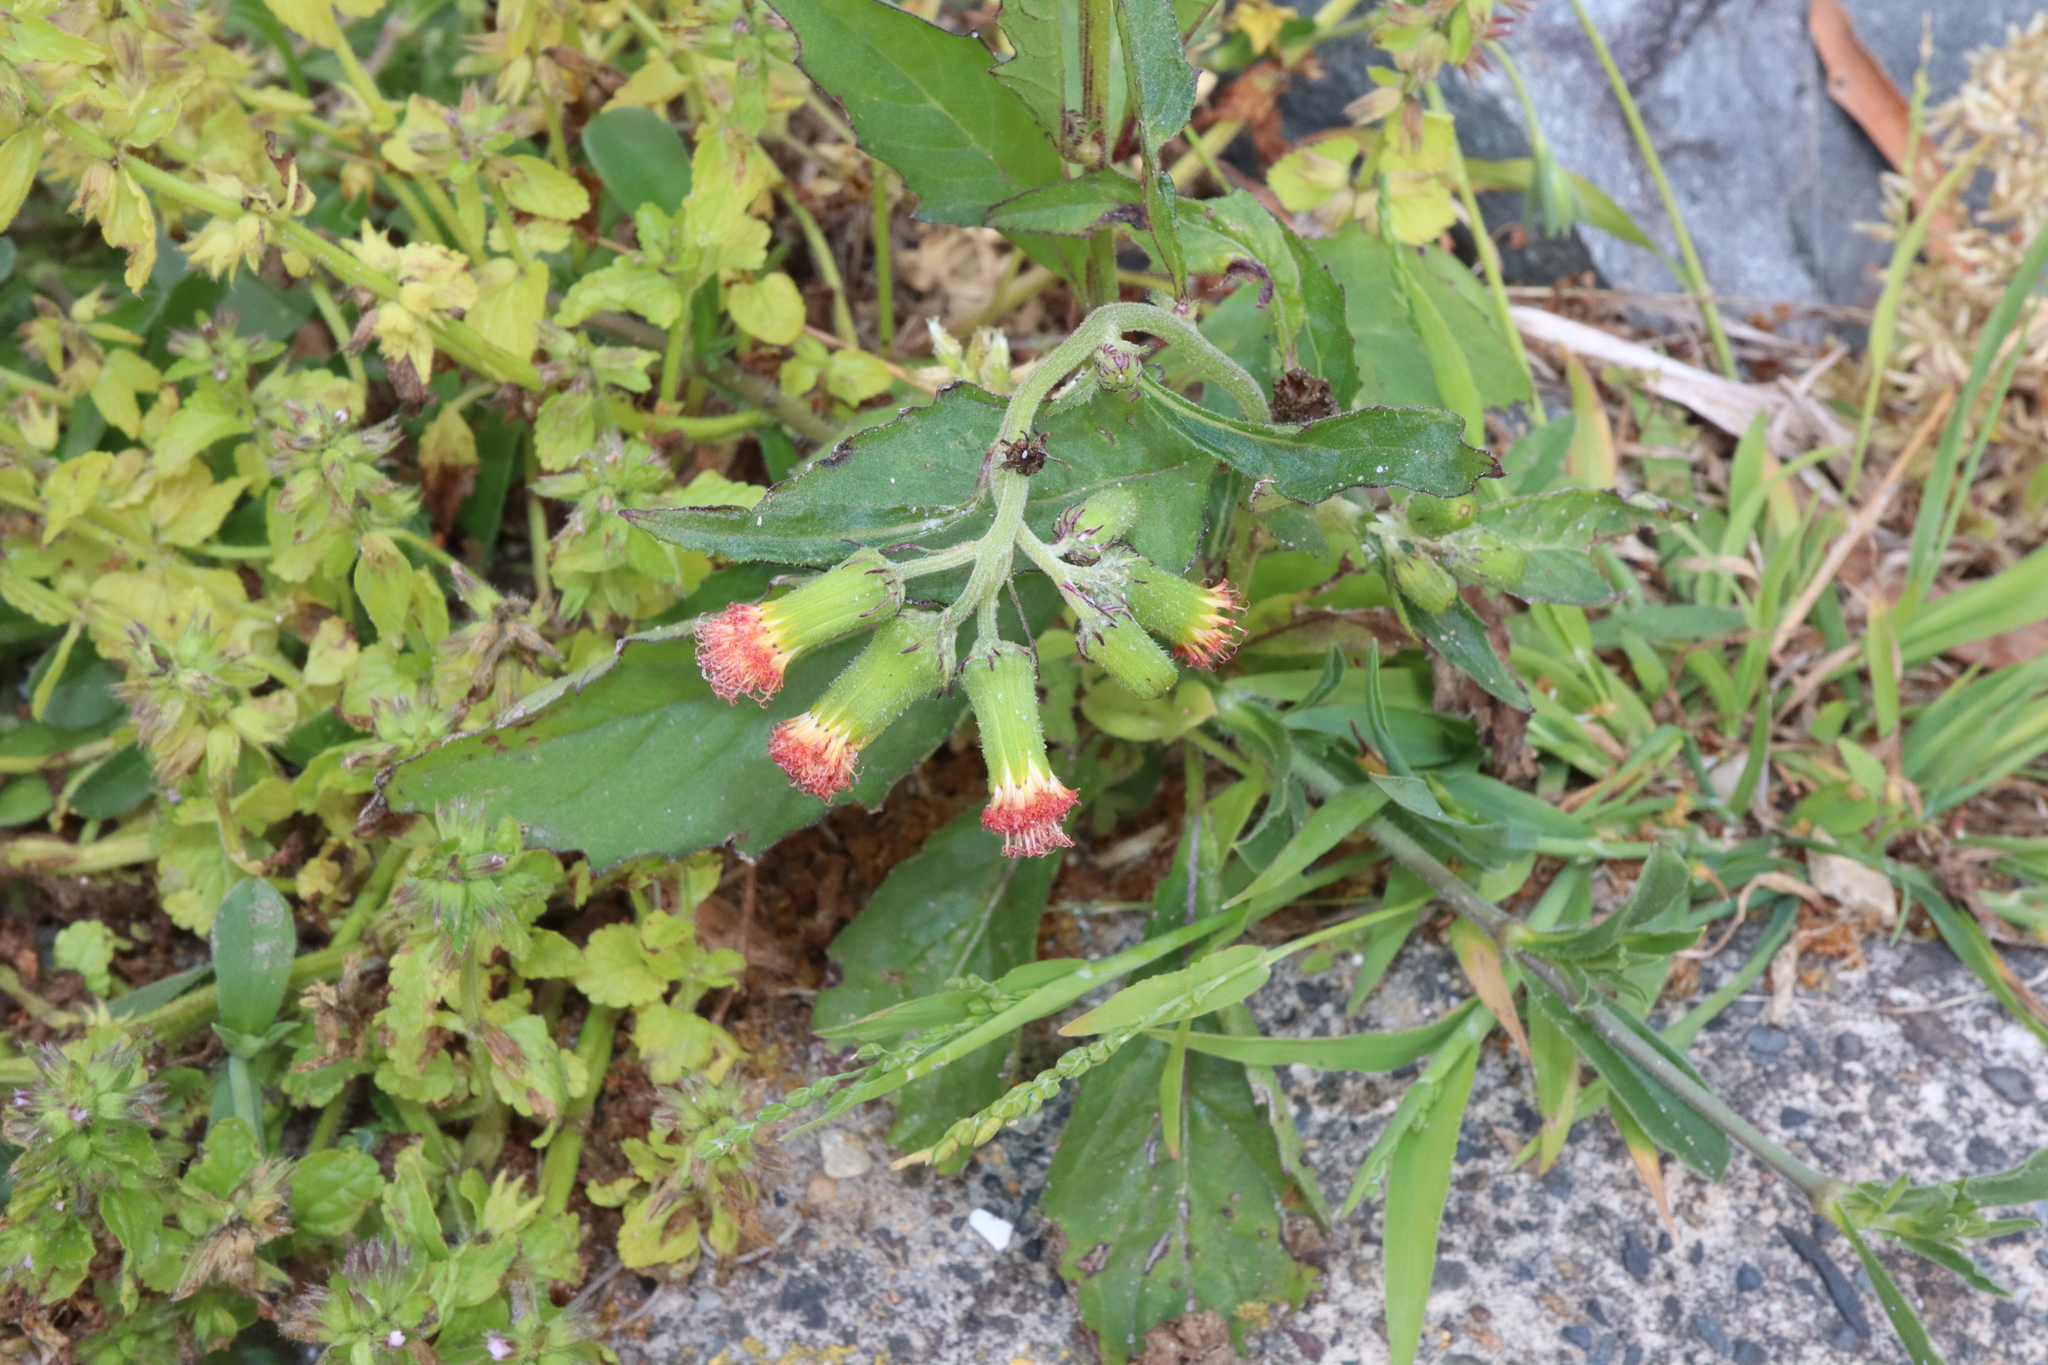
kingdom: Plantae
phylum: Tracheophyta
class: Magnoliopsida
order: Asterales
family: Asteraceae
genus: Crassocephalum
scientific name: Crassocephalum crepidioides
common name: Redflower ragleaf
